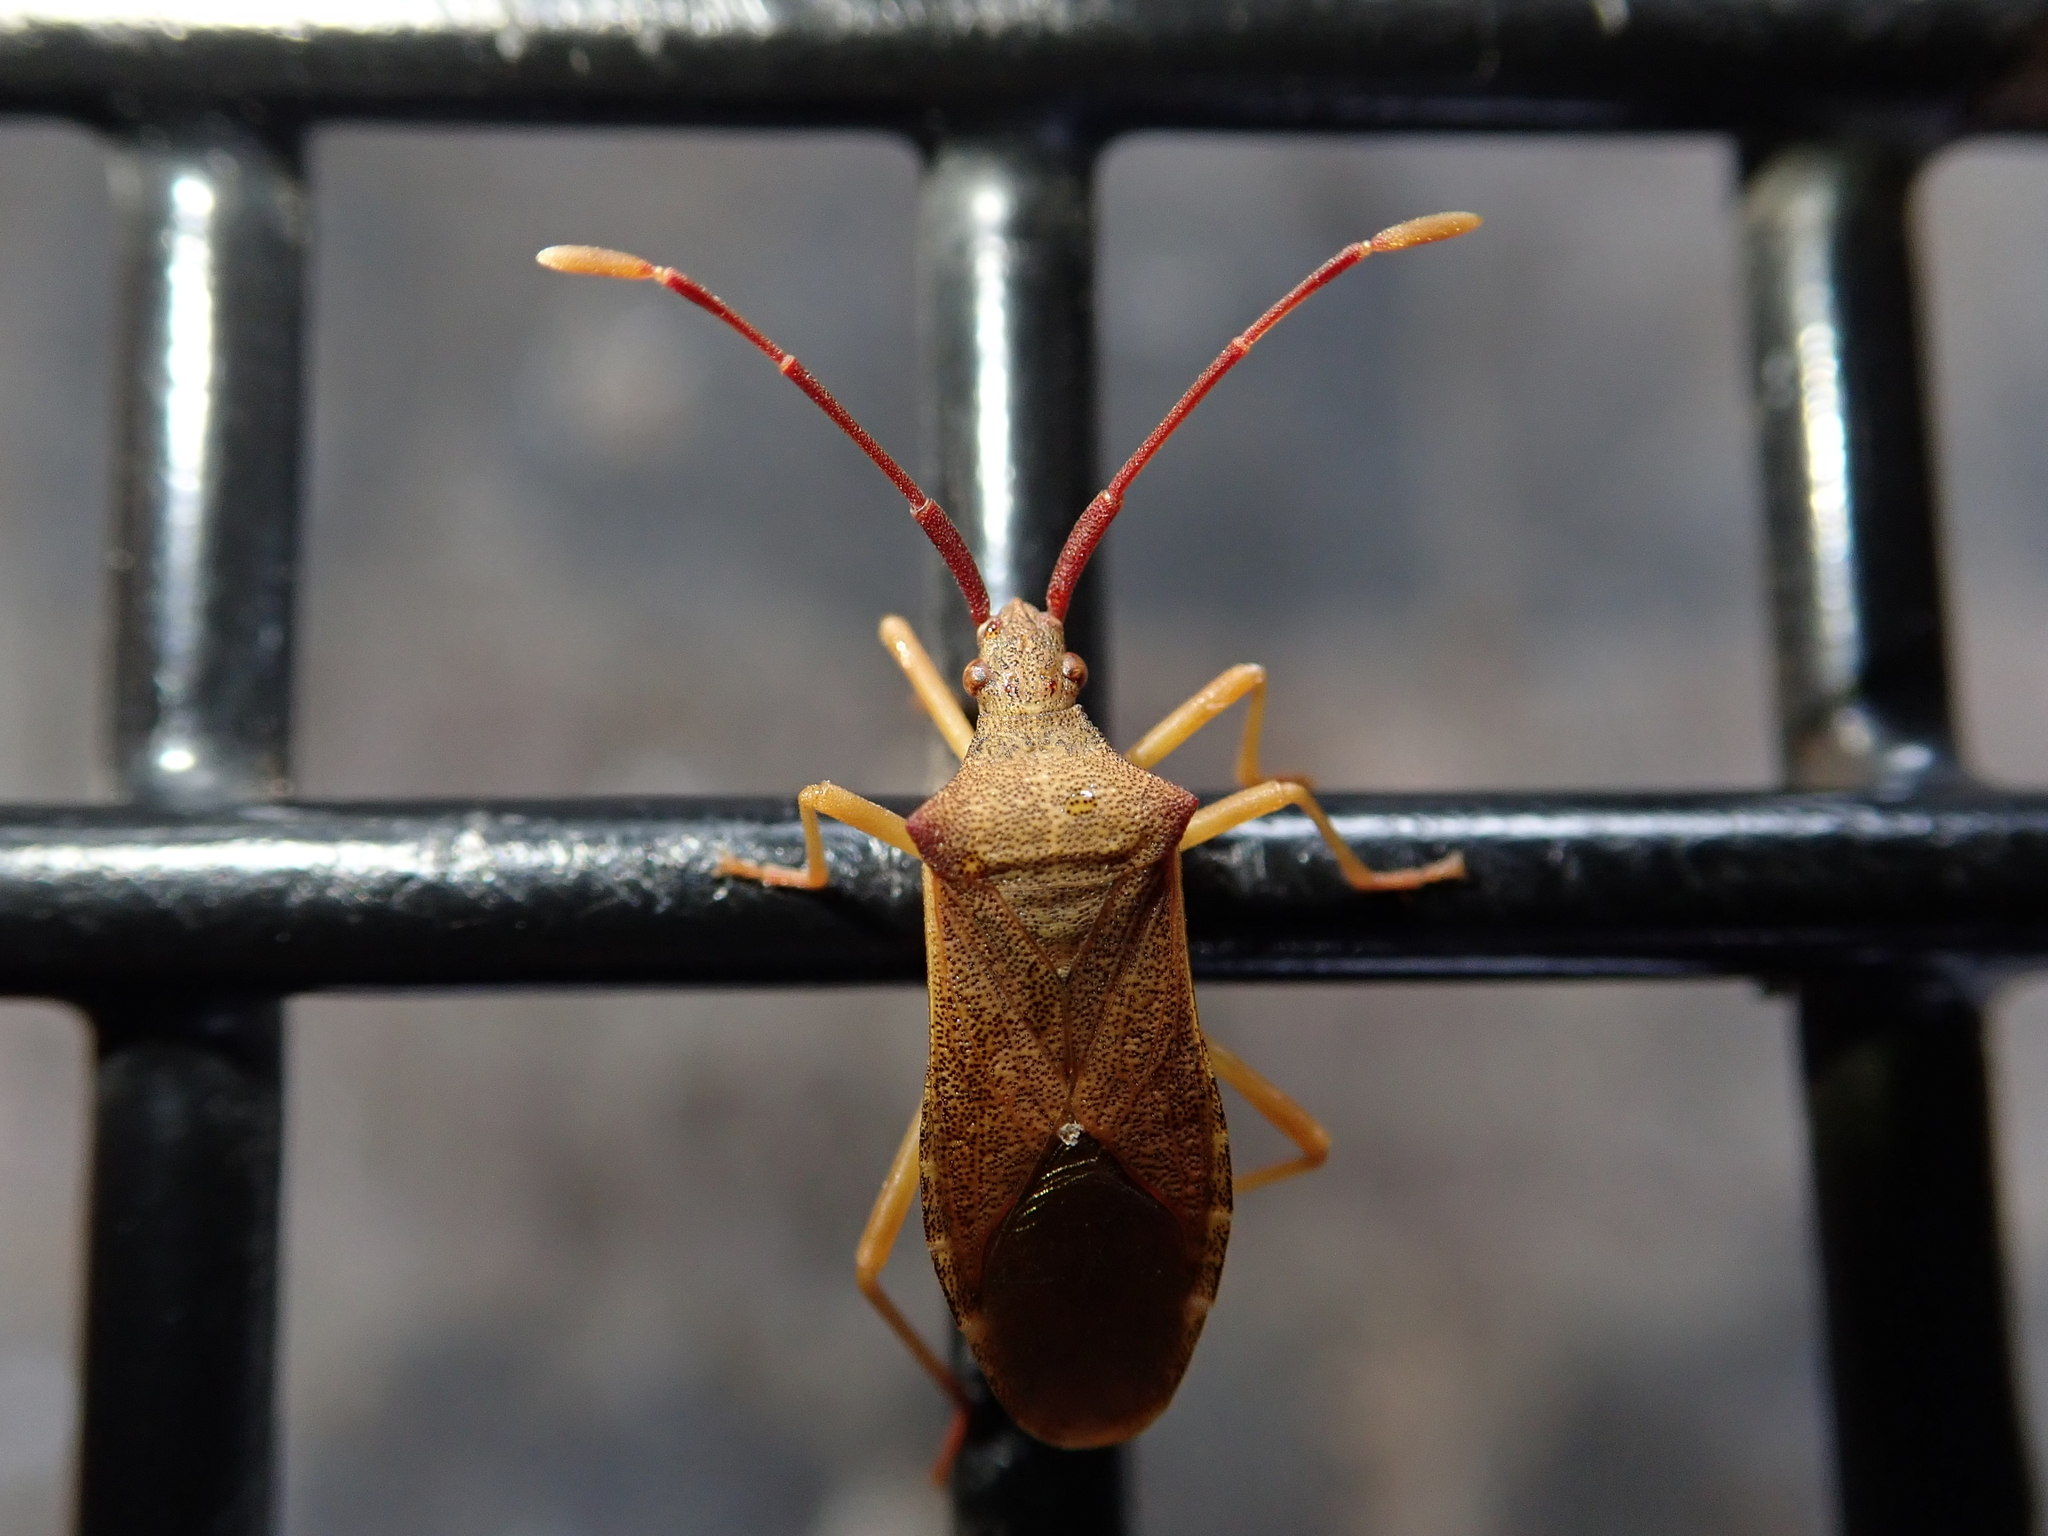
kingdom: Animalia
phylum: Arthropoda
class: Insecta
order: Hemiptera
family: Coreidae
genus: Gonocerus
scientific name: Gonocerus acuteangulatus
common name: Box bug
